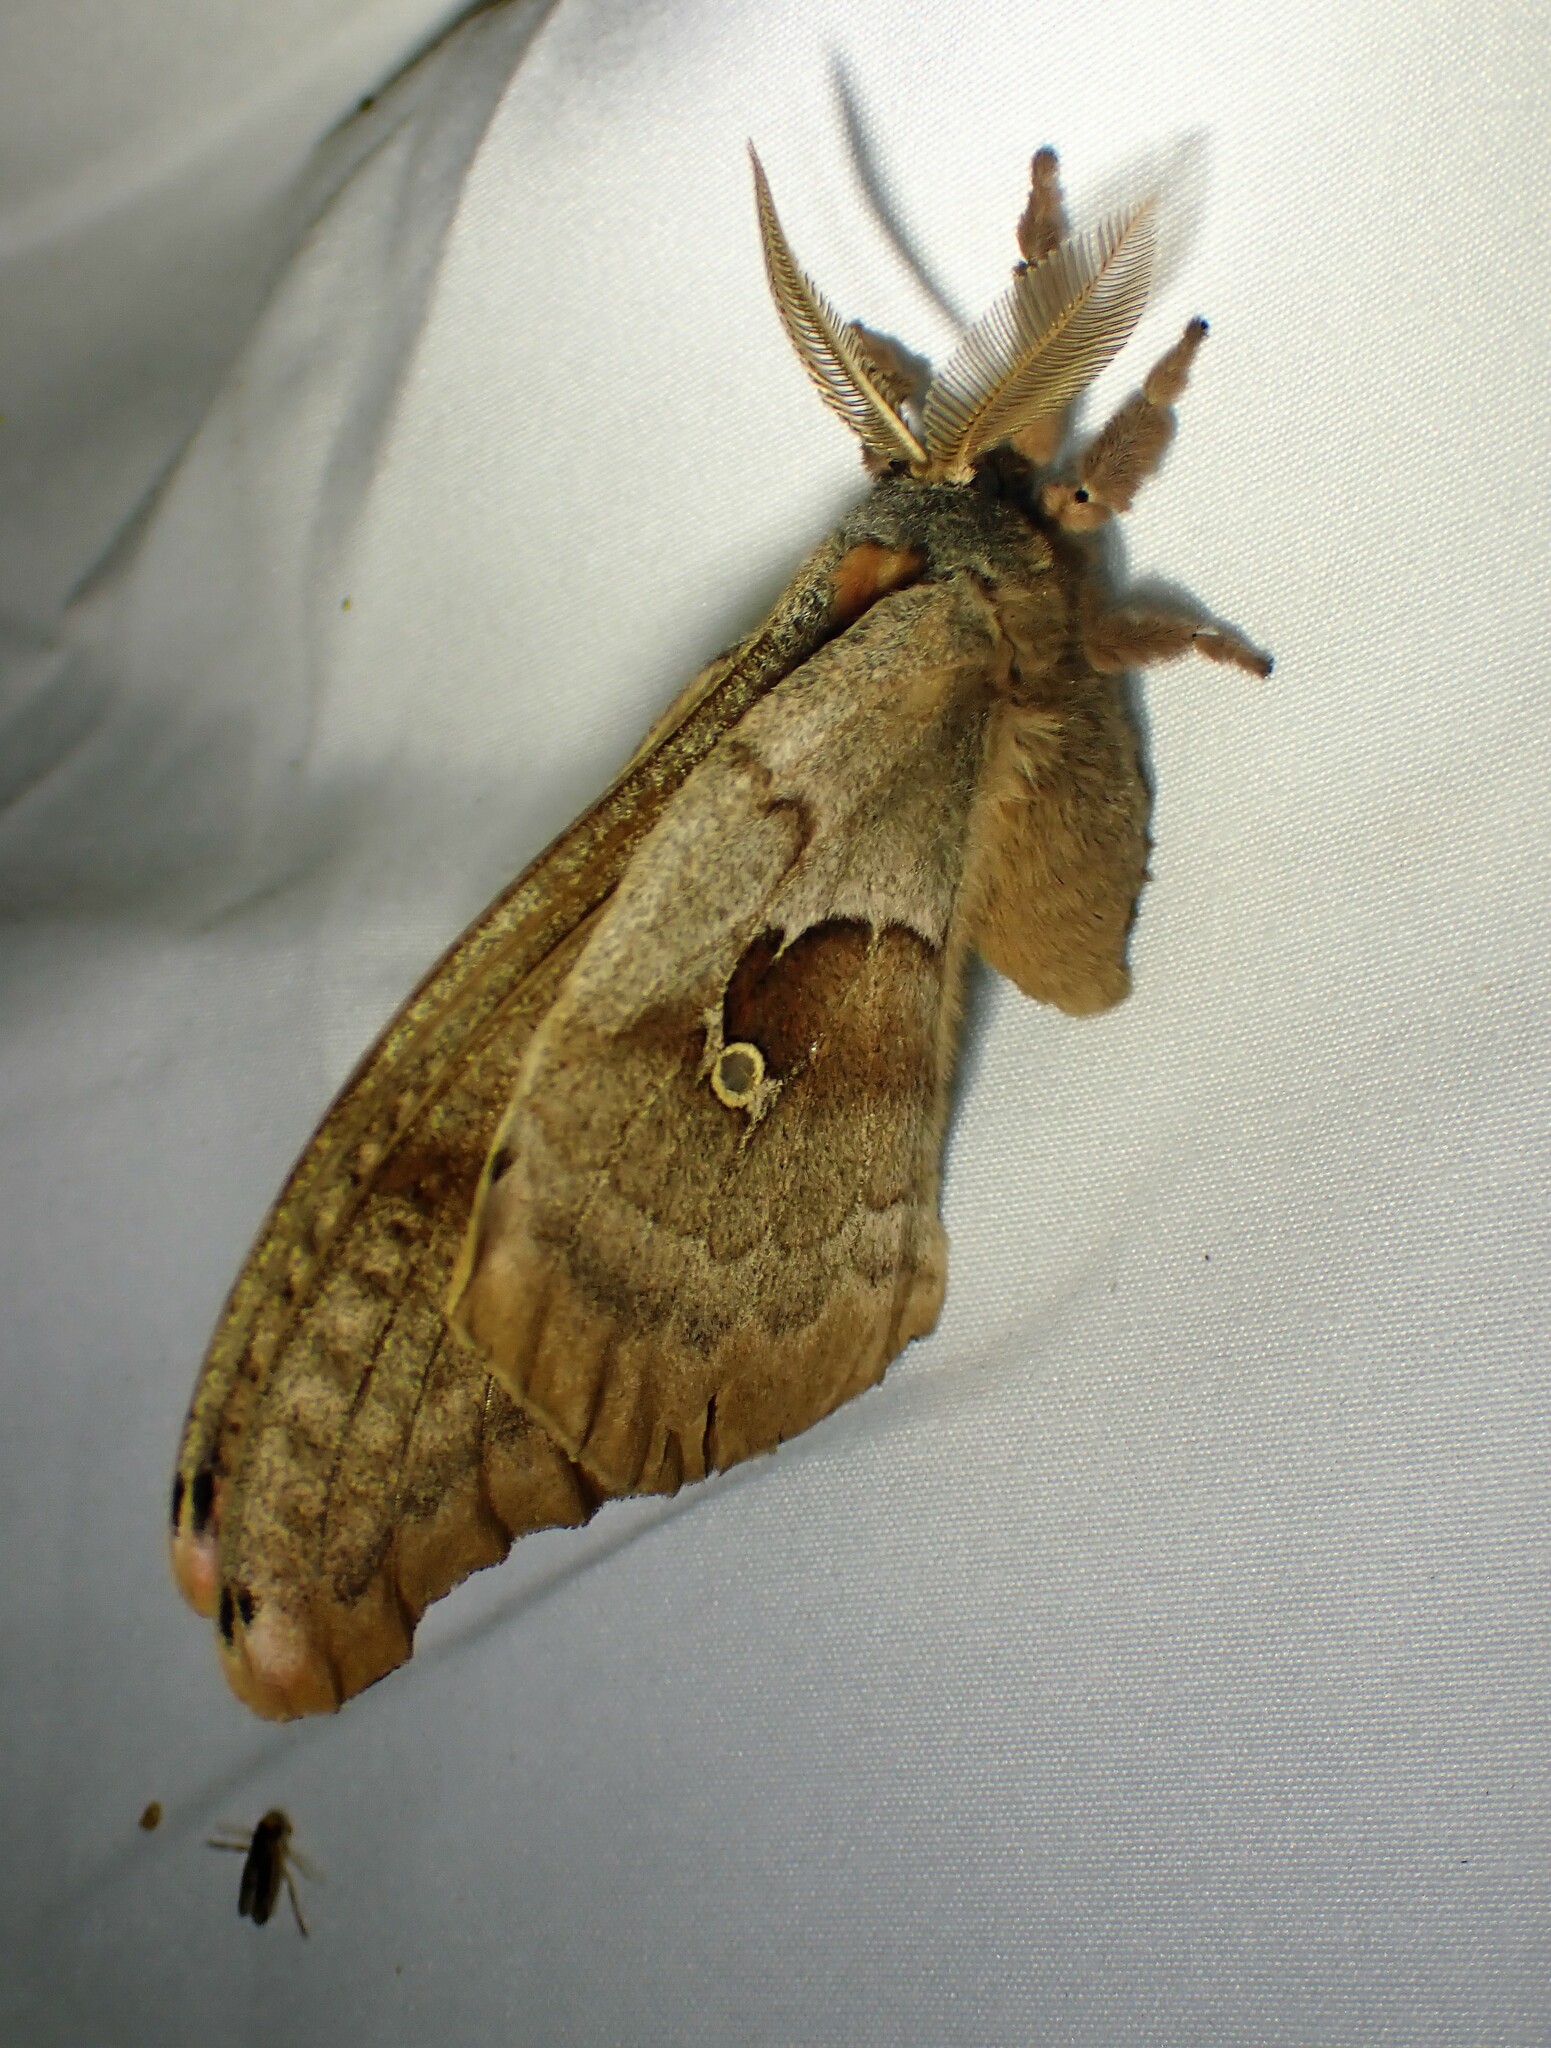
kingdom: Animalia
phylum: Arthropoda
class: Insecta
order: Lepidoptera
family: Saturniidae
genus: Antheraea
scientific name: Antheraea polyphemus
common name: Polyphemus moth
